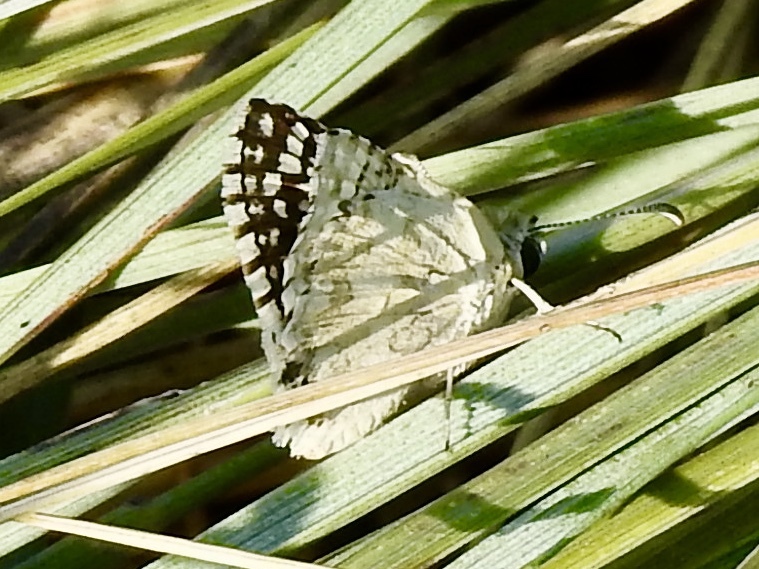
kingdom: Animalia
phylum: Arthropoda
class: Insecta
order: Lepidoptera
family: Hesperiidae
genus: Burnsius
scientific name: Burnsius communis
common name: Common checkered-skipper
